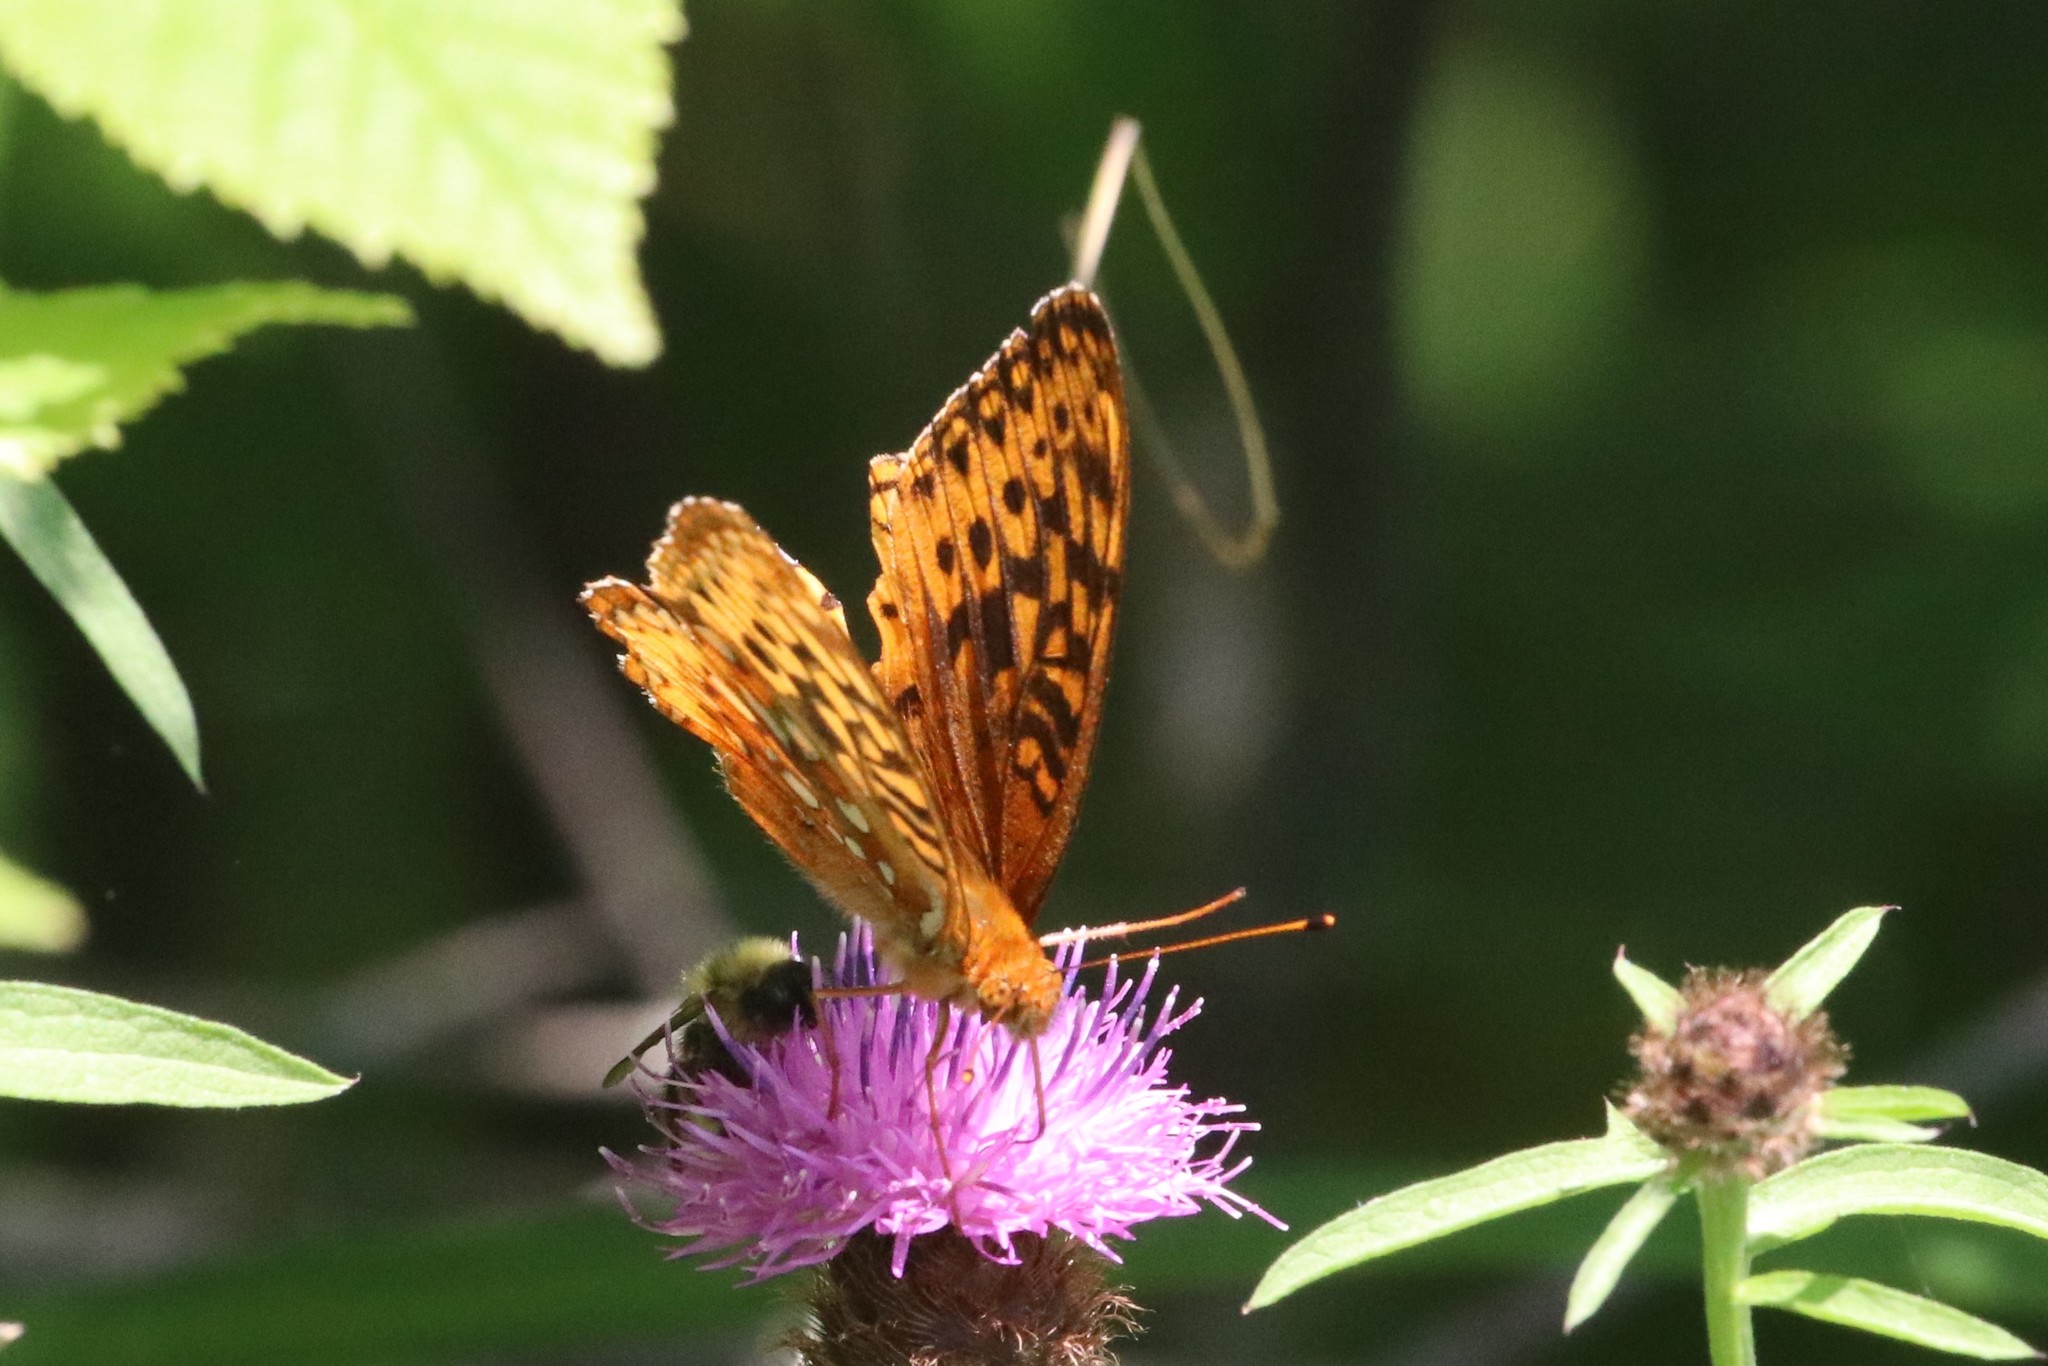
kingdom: Animalia
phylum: Arthropoda
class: Insecta
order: Lepidoptera
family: Nymphalidae
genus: Speyeria
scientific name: Speyeria cybele
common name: Great spangled fritillary
